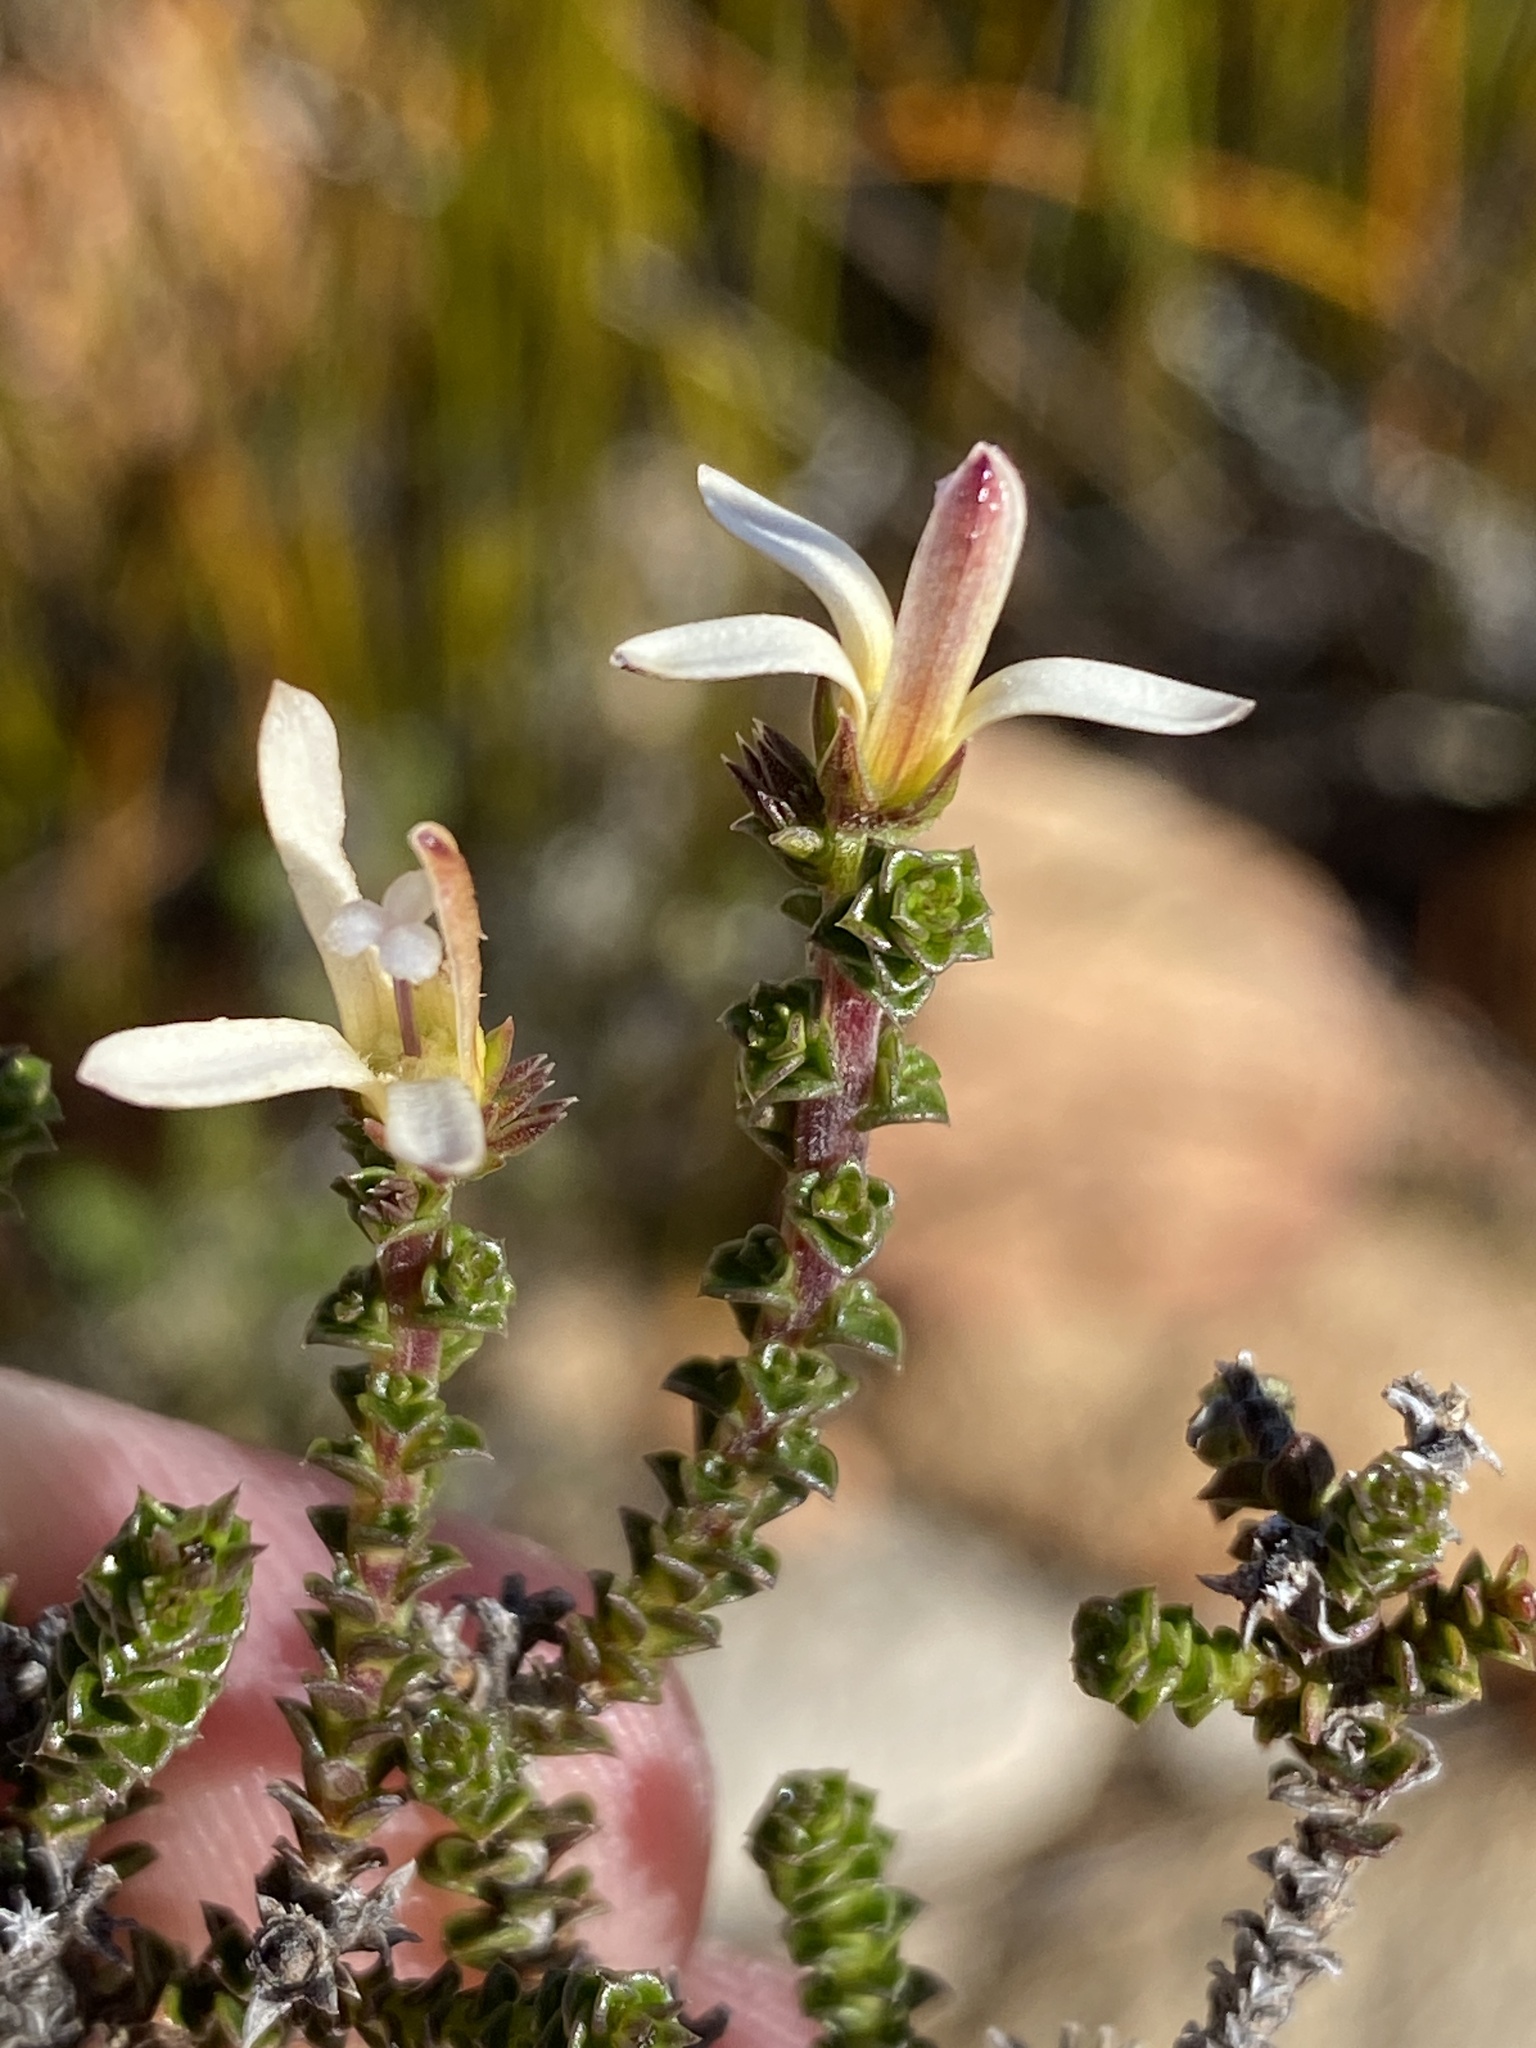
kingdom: Plantae
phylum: Tracheophyta
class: Magnoliopsida
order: Asterales
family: Campanulaceae
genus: Wahlenbergia
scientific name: Wahlenbergia neorigida
